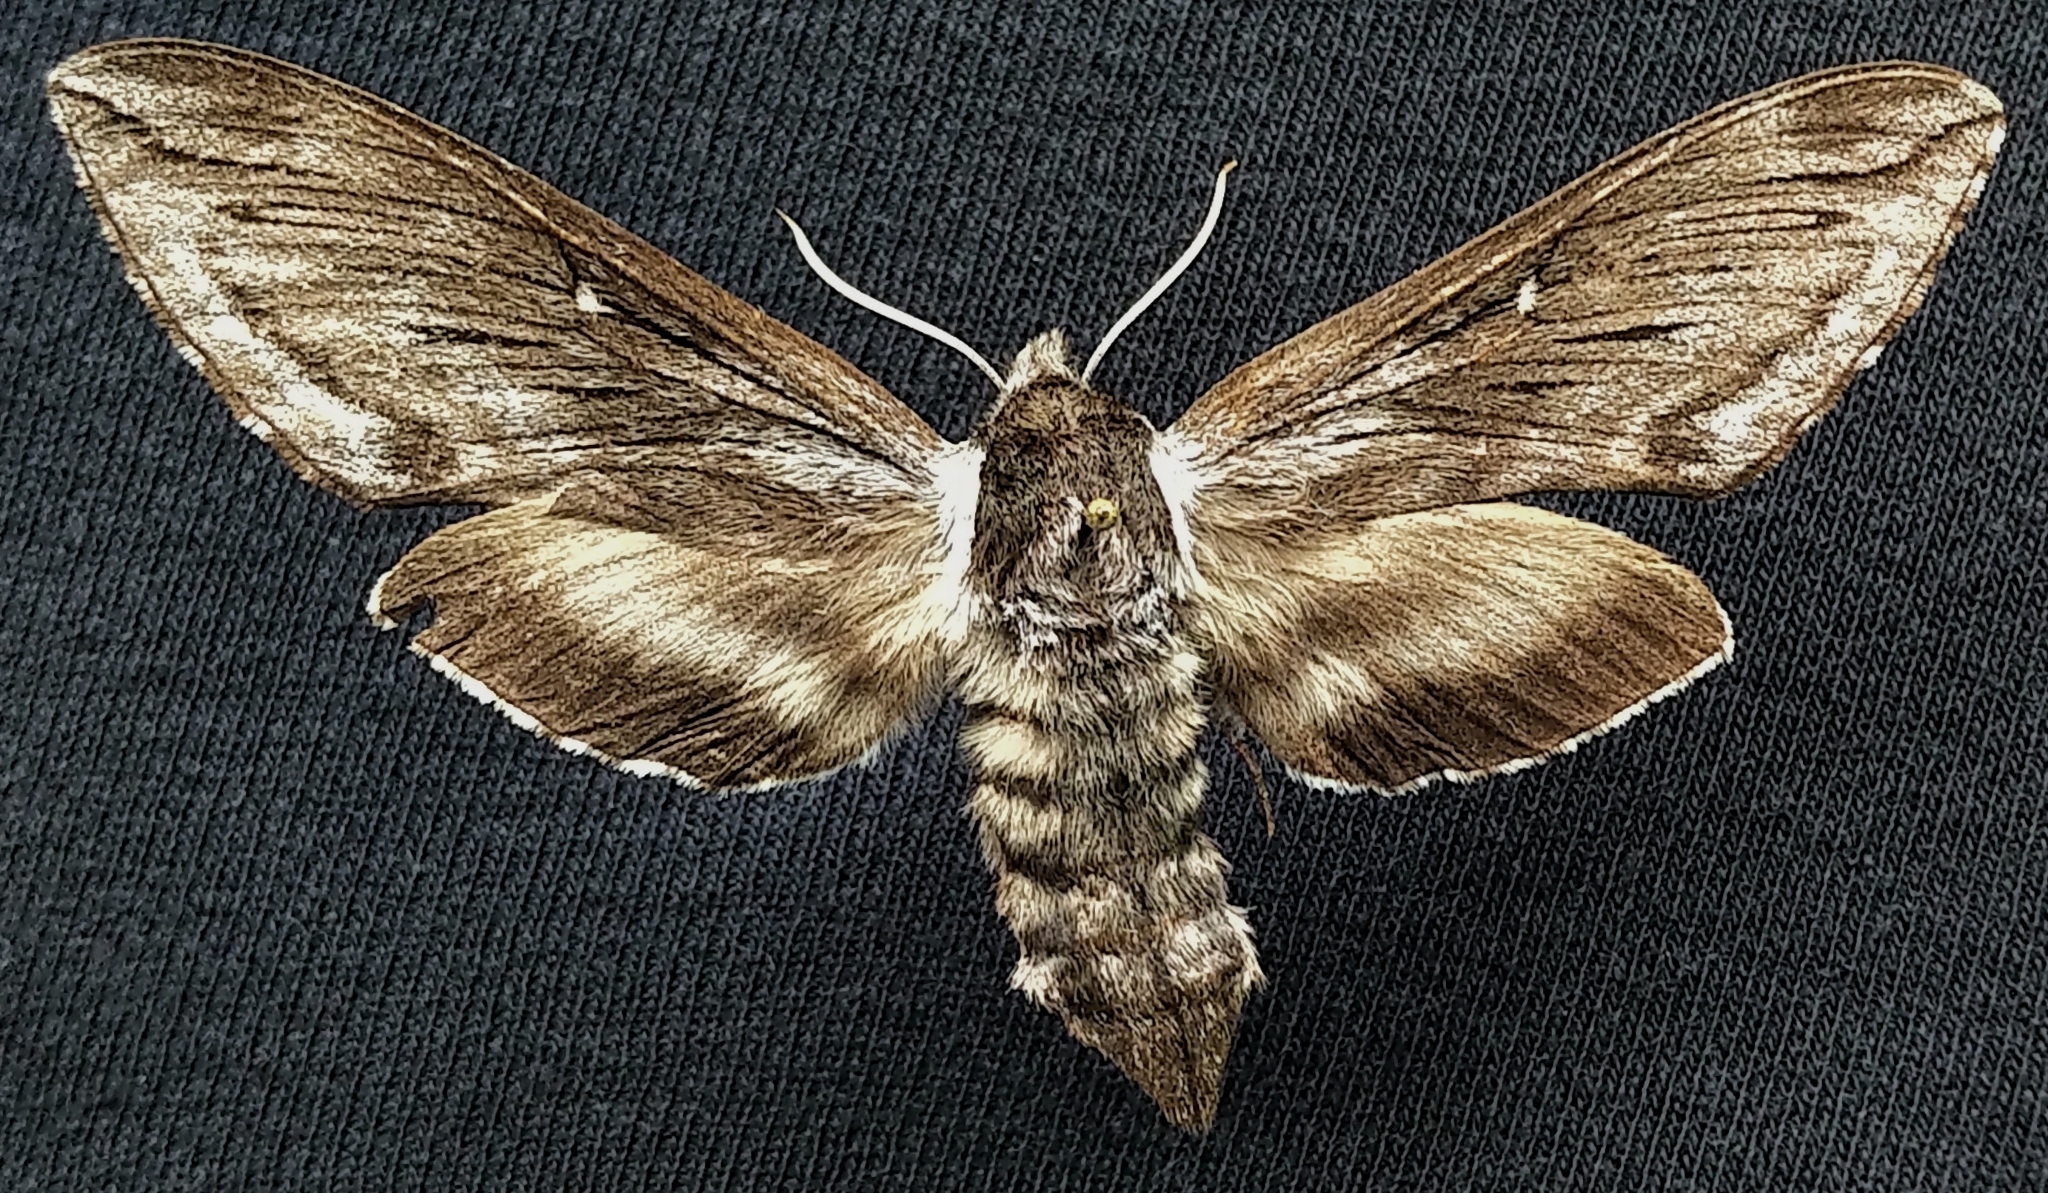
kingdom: Animalia
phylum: Arthropoda
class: Insecta
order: Lepidoptera
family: Sphingidae
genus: Sphinx
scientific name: Sphinx poecila
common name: Northern apple sphinx
